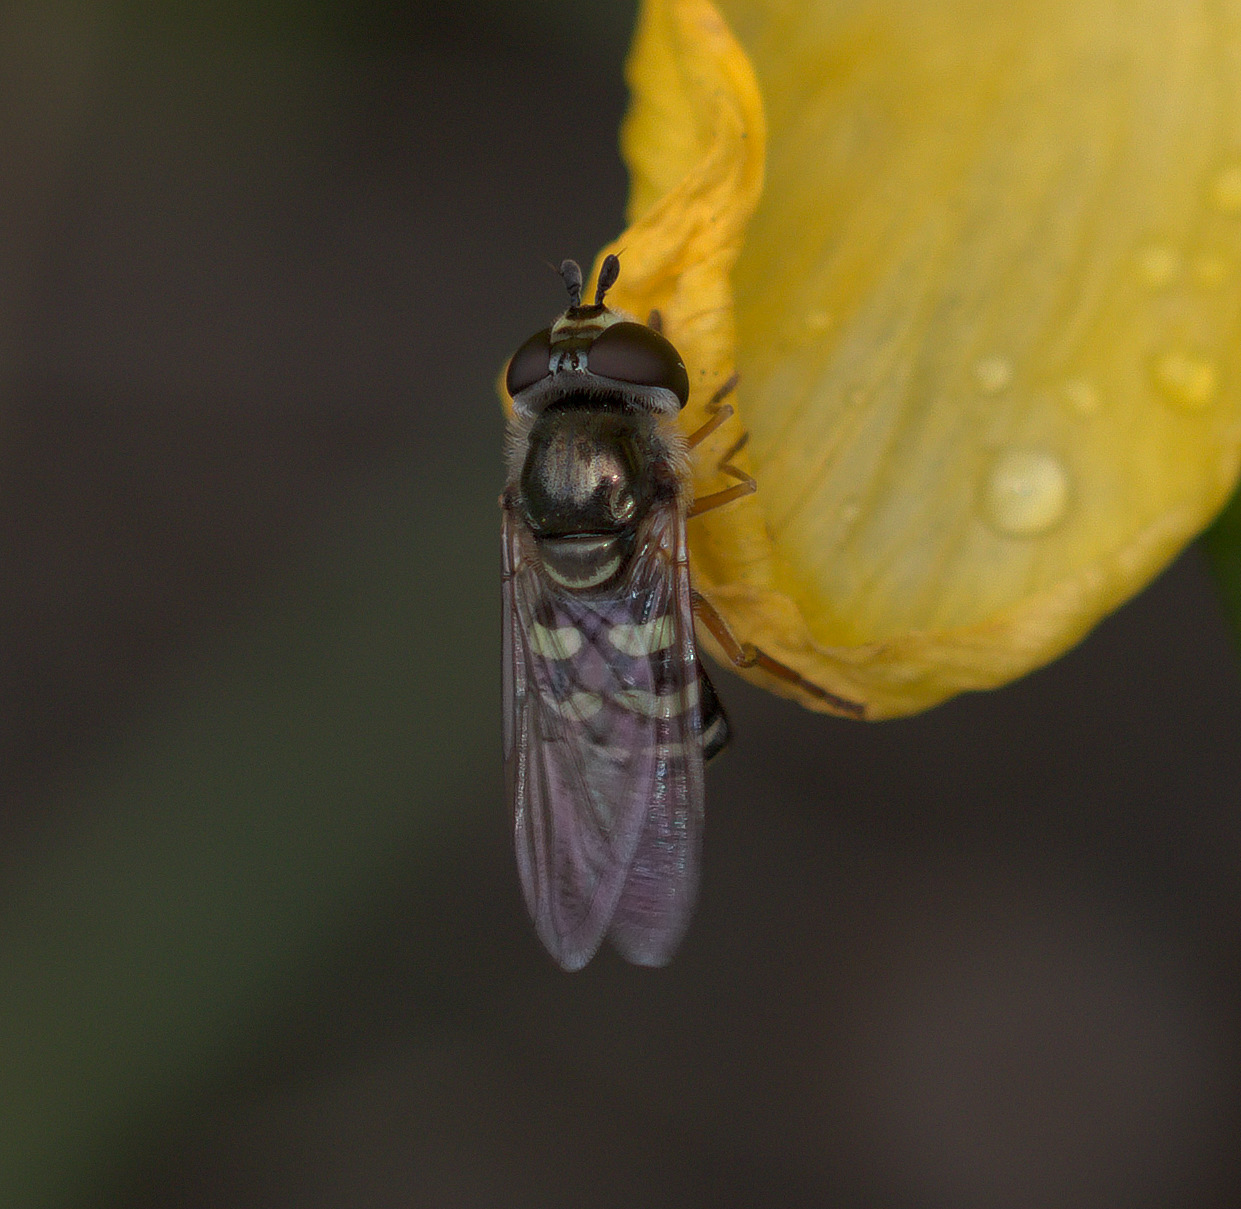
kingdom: Animalia
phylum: Arthropoda
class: Insecta
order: Diptera
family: Syrphidae
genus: Eupeodes
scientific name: Eupeodes volucris
